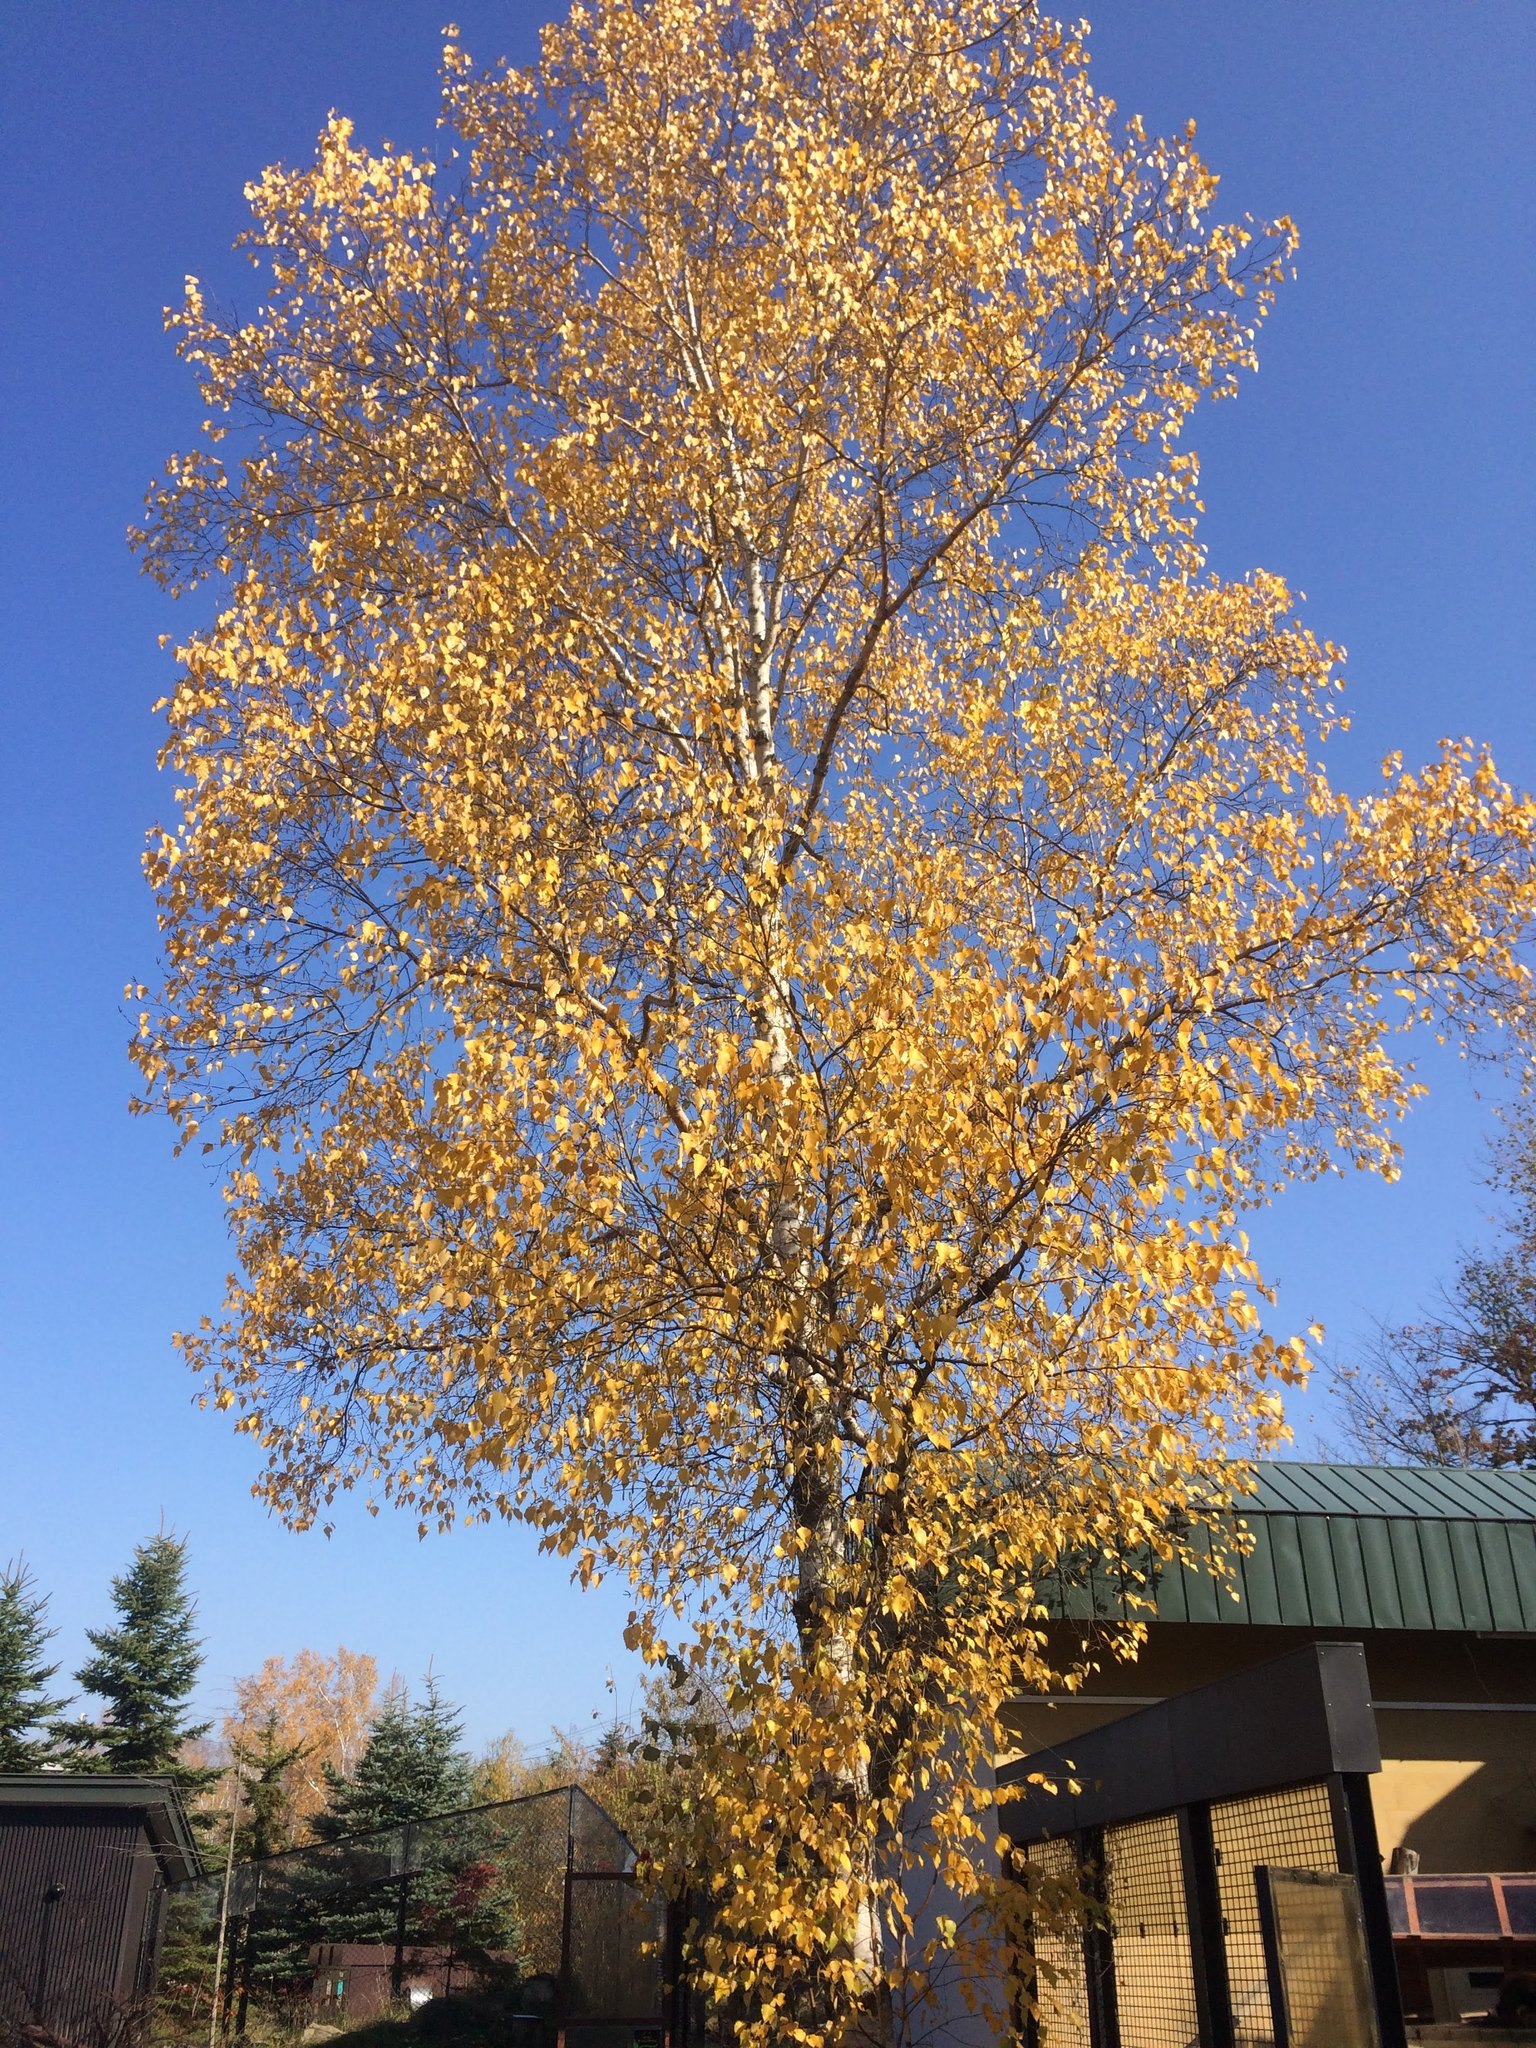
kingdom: Plantae
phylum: Tracheophyta
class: Magnoliopsida
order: Fagales
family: Betulaceae
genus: Betula
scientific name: Betula pendula
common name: Silver birch
